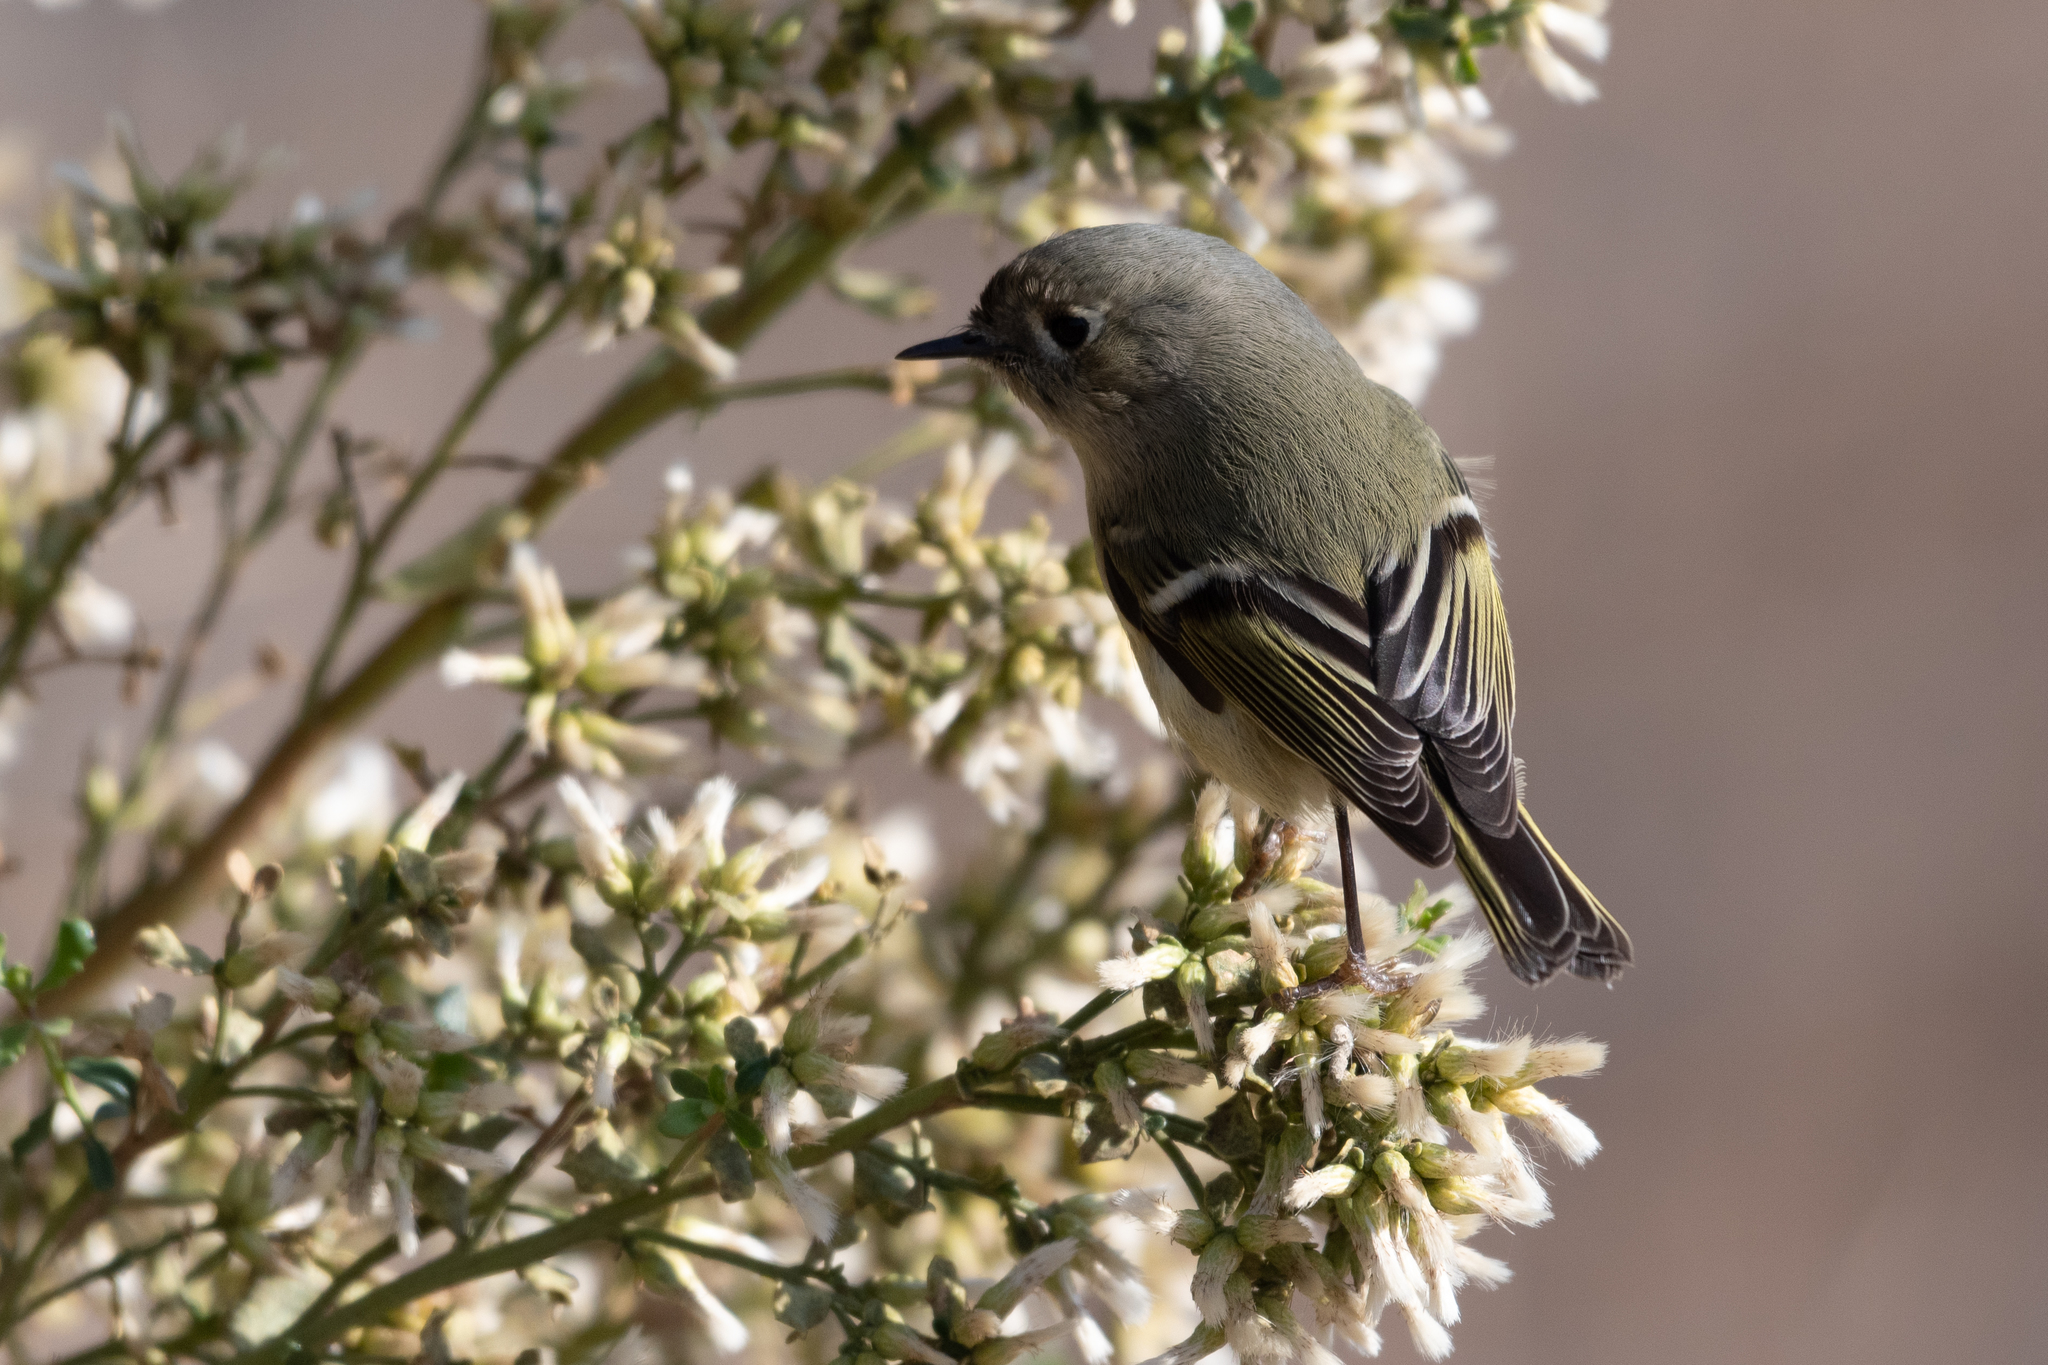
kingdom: Animalia
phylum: Chordata
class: Aves
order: Passeriformes
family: Regulidae
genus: Regulus
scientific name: Regulus calendula
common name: Ruby-crowned kinglet
